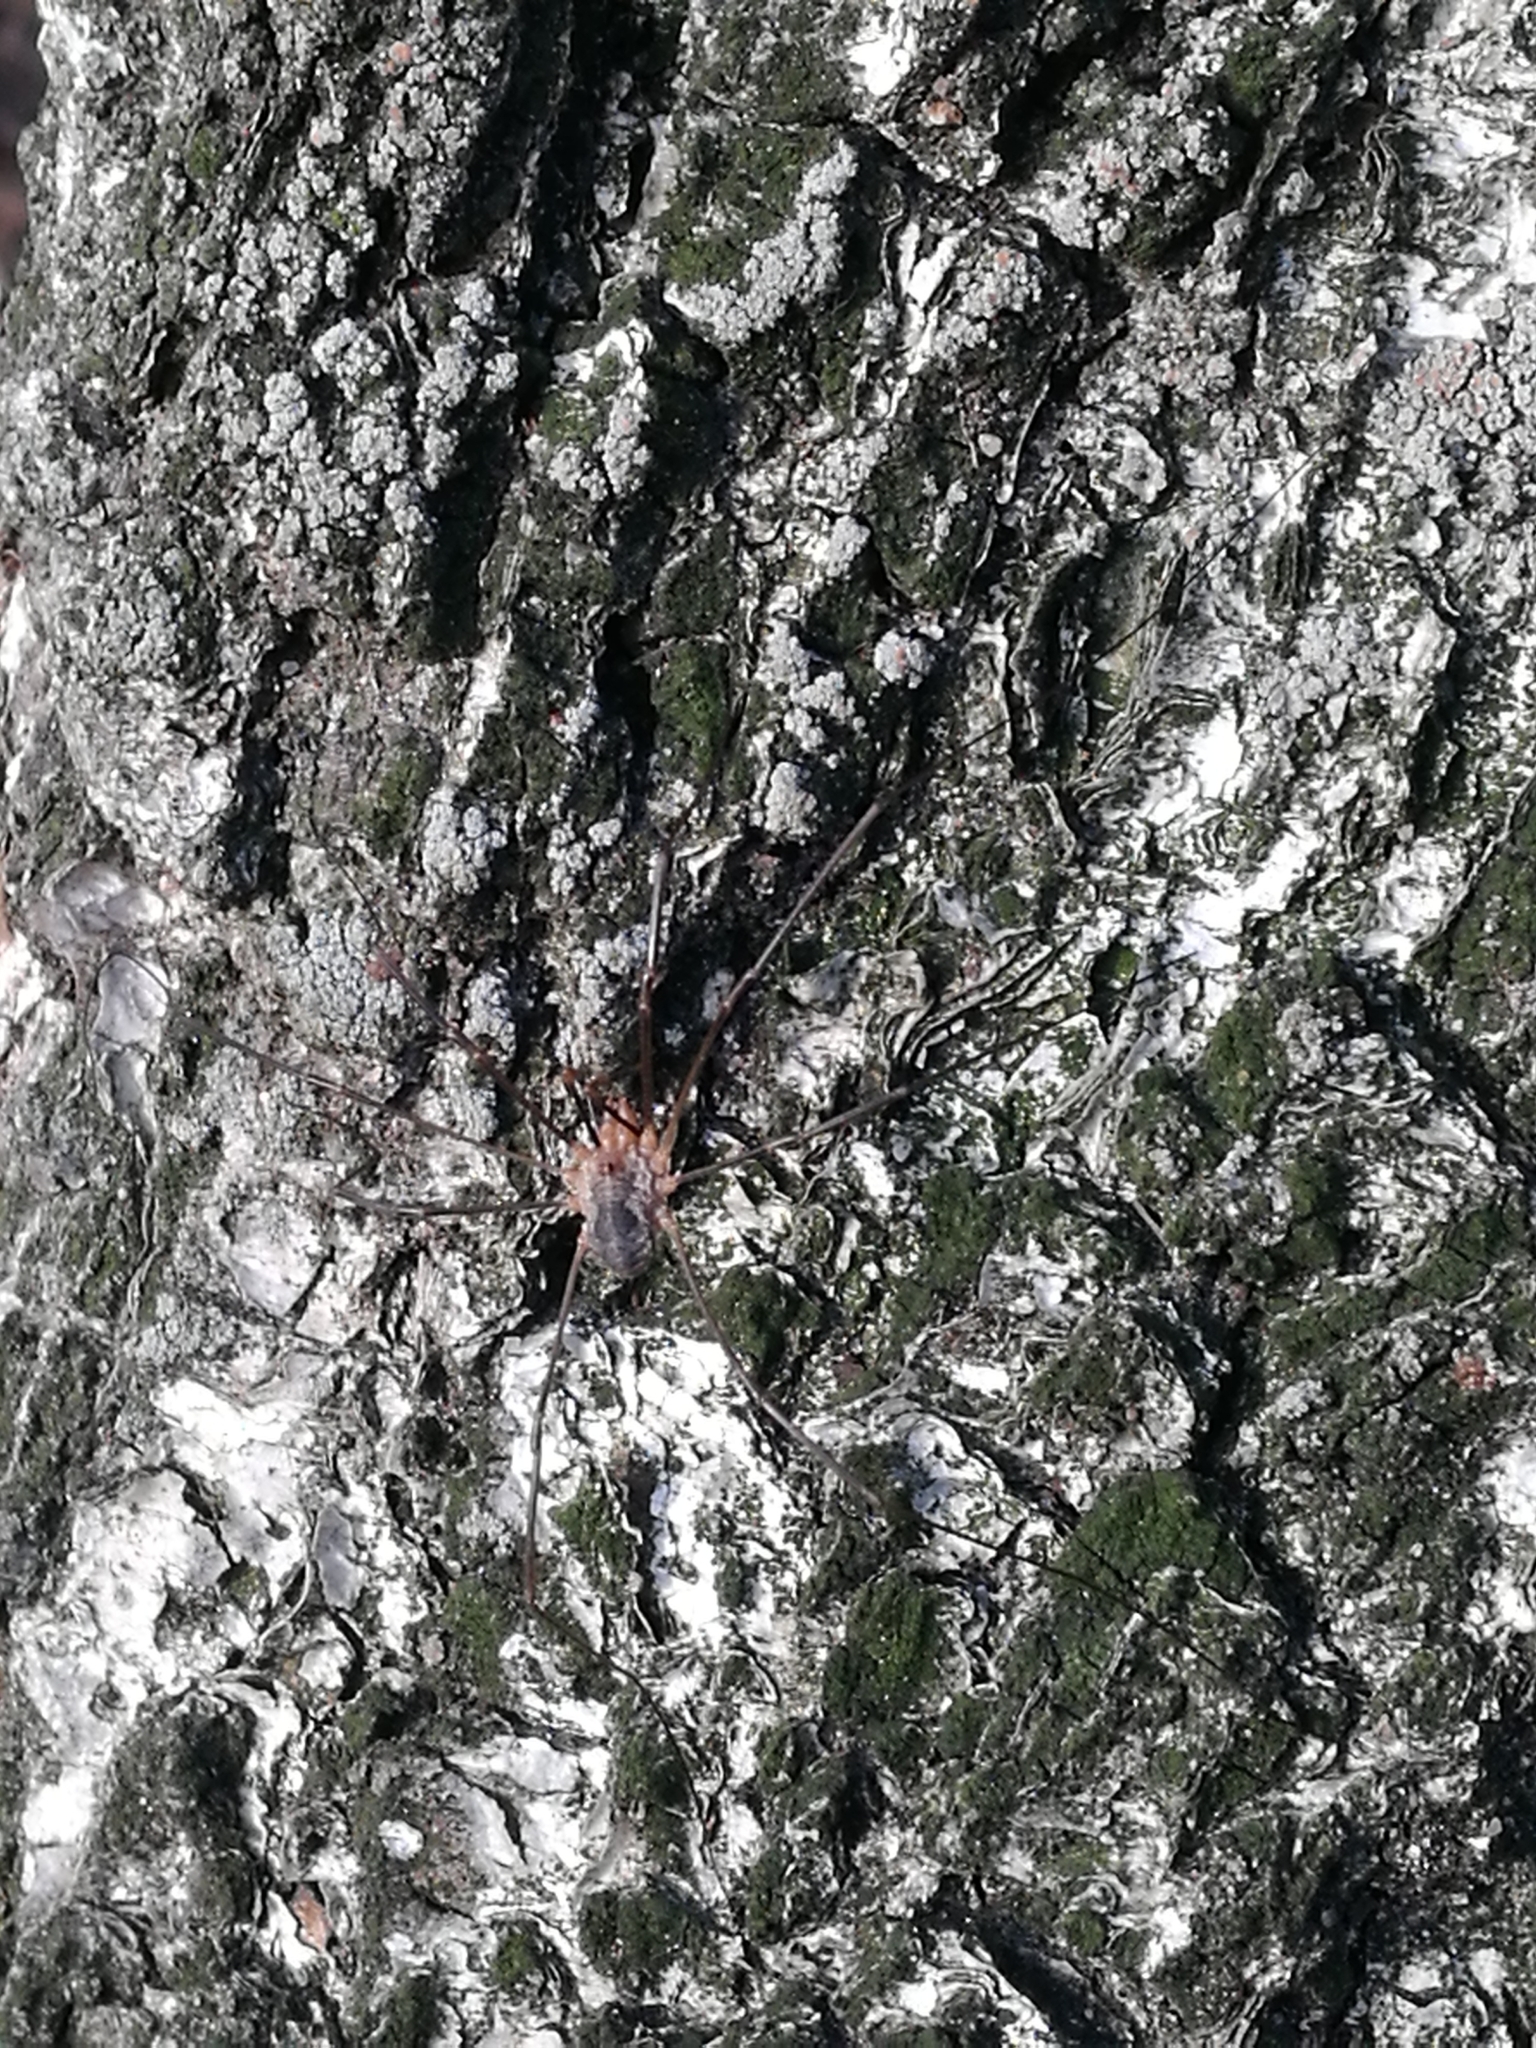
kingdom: Animalia
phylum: Arthropoda
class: Arachnida
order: Opiliones
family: Phalangiidae
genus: Phalangium
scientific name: Phalangium opilio
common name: Daddy longleg
